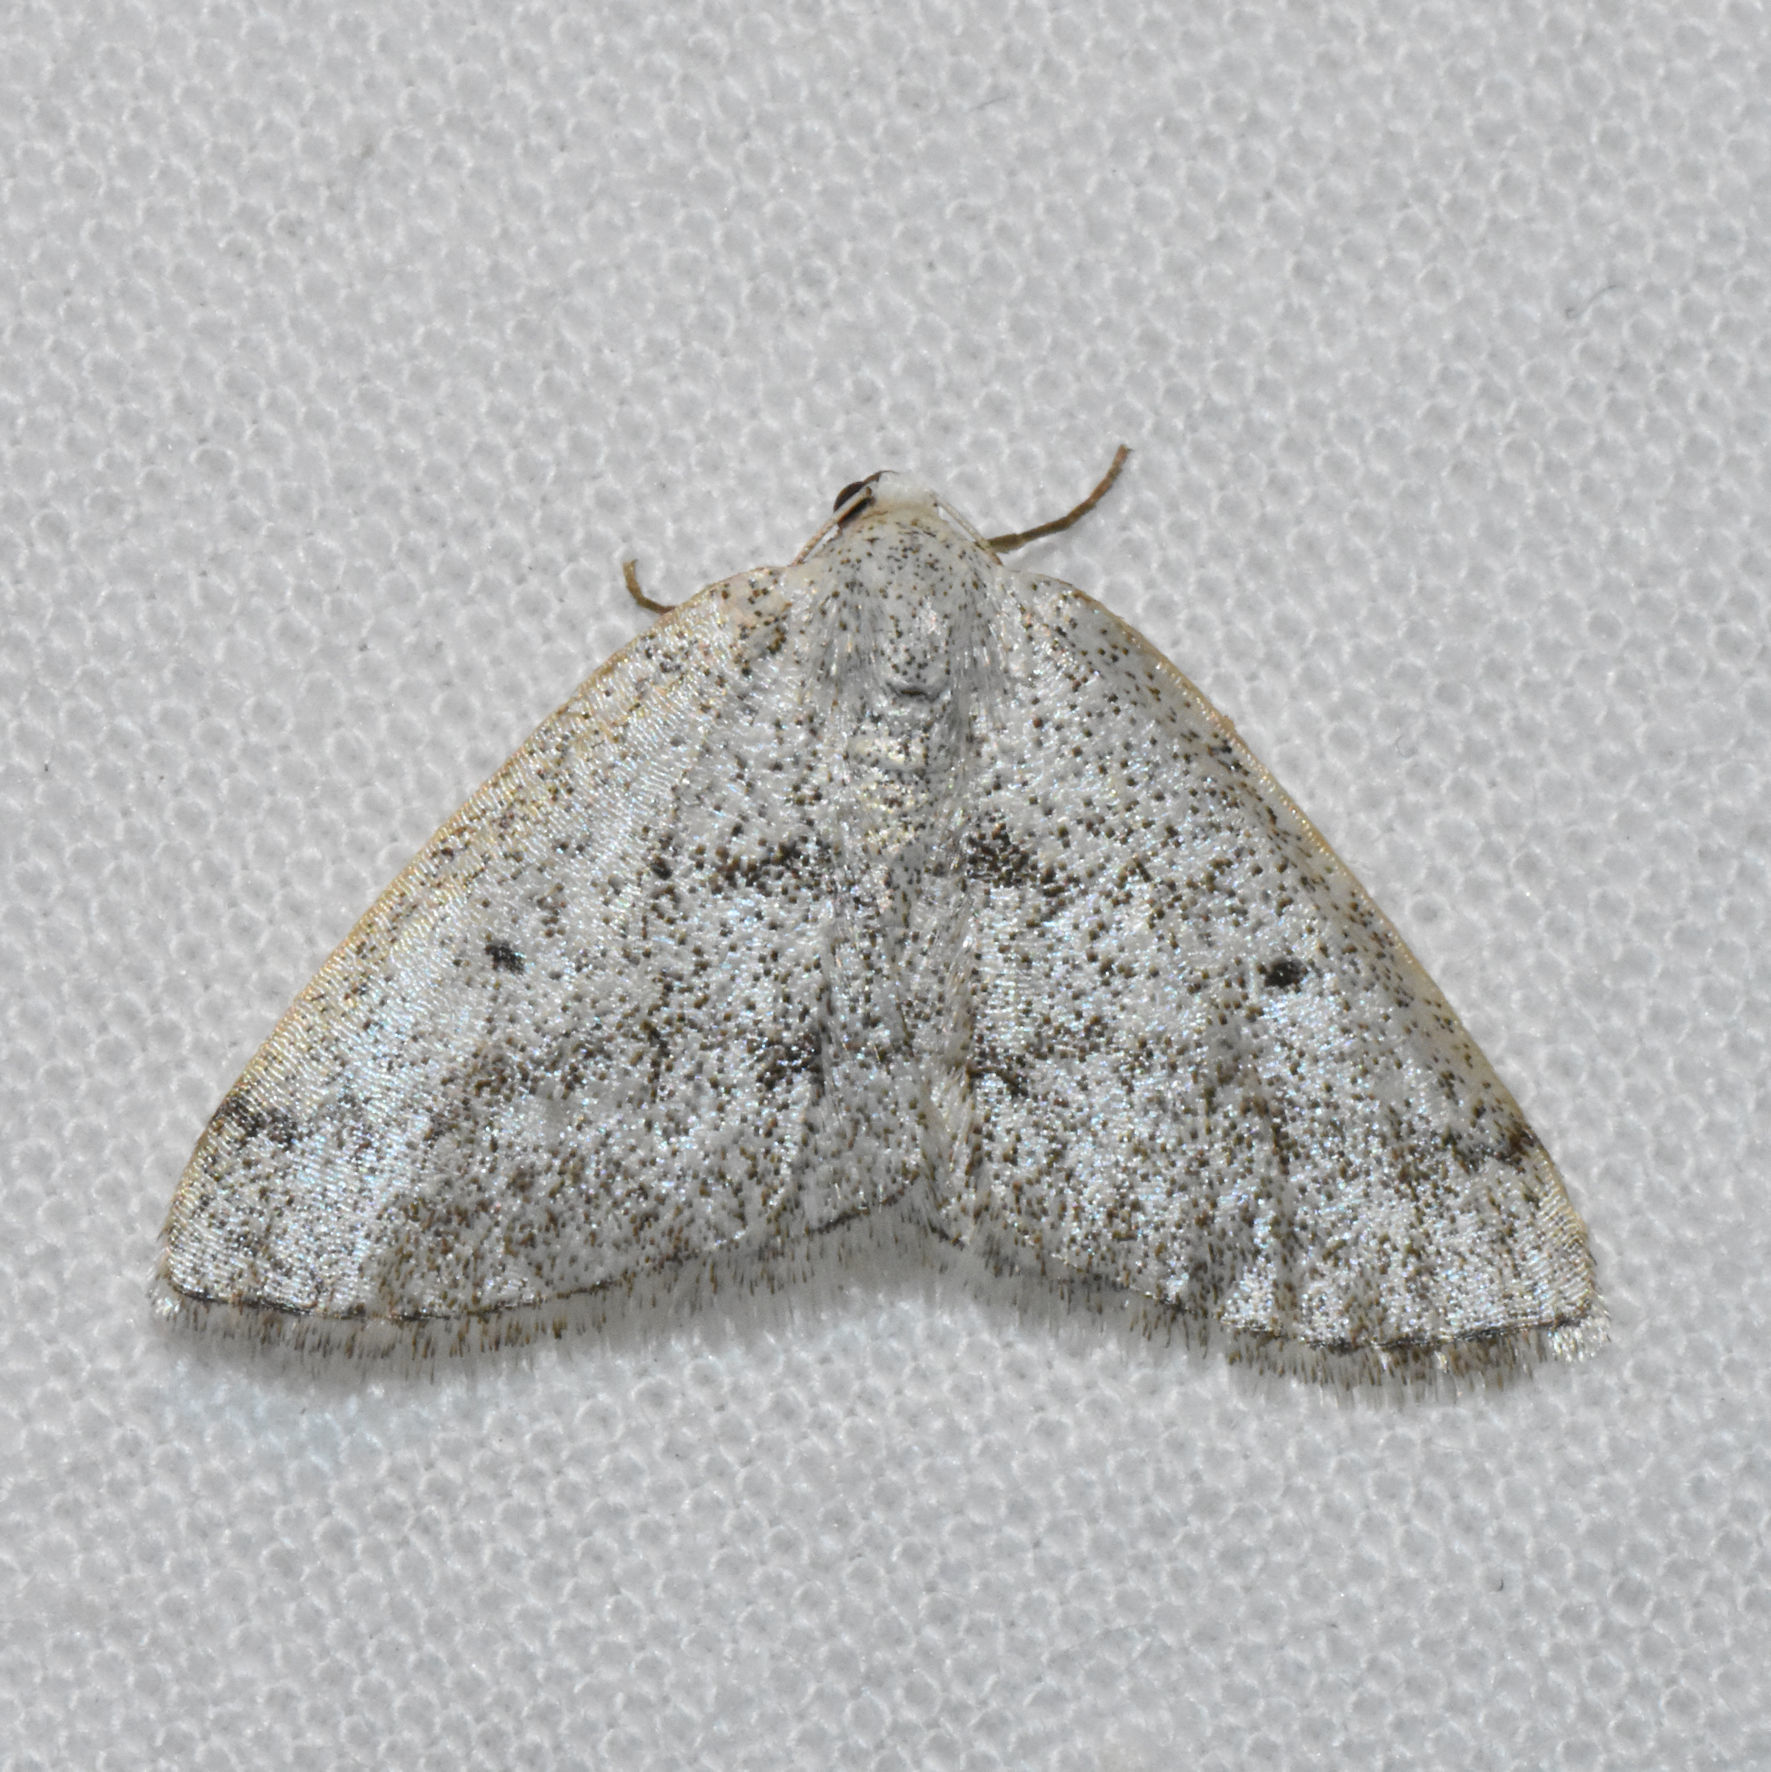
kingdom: Animalia
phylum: Arthropoda
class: Insecta
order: Lepidoptera
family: Geometridae
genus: Lomographa
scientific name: Lomographa glomeraria
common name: Gray spring moth
